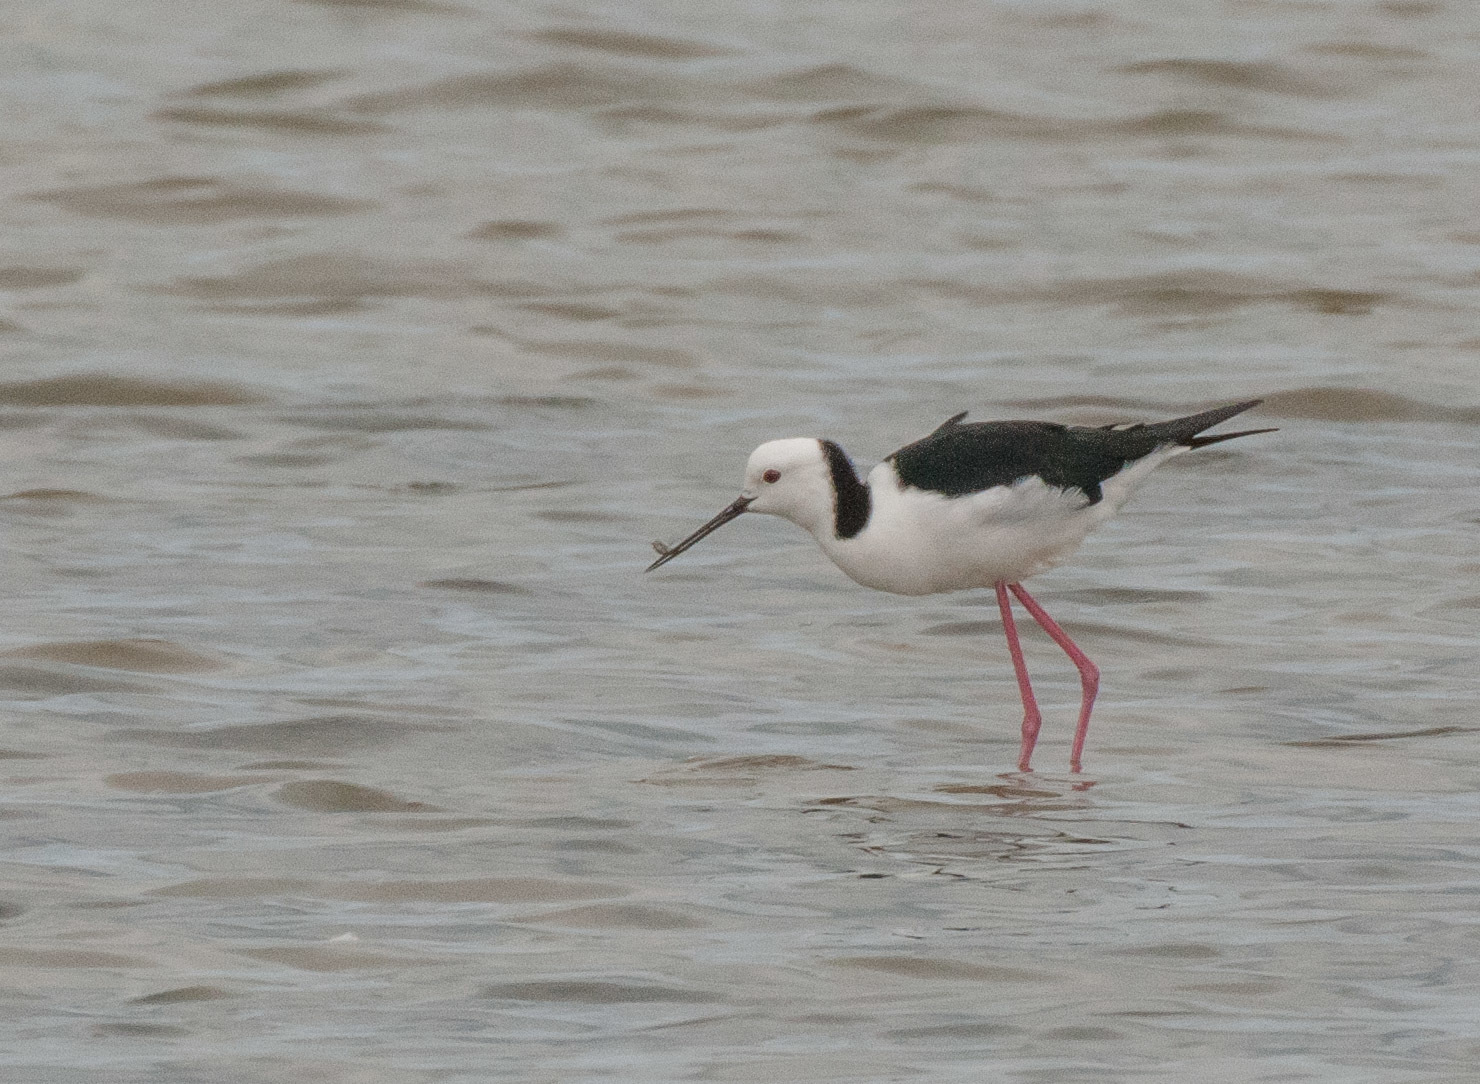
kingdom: Animalia
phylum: Chordata
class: Aves
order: Charadriiformes
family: Recurvirostridae
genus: Himantopus
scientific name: Himantopus leucocephalus
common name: White-headed stilt
